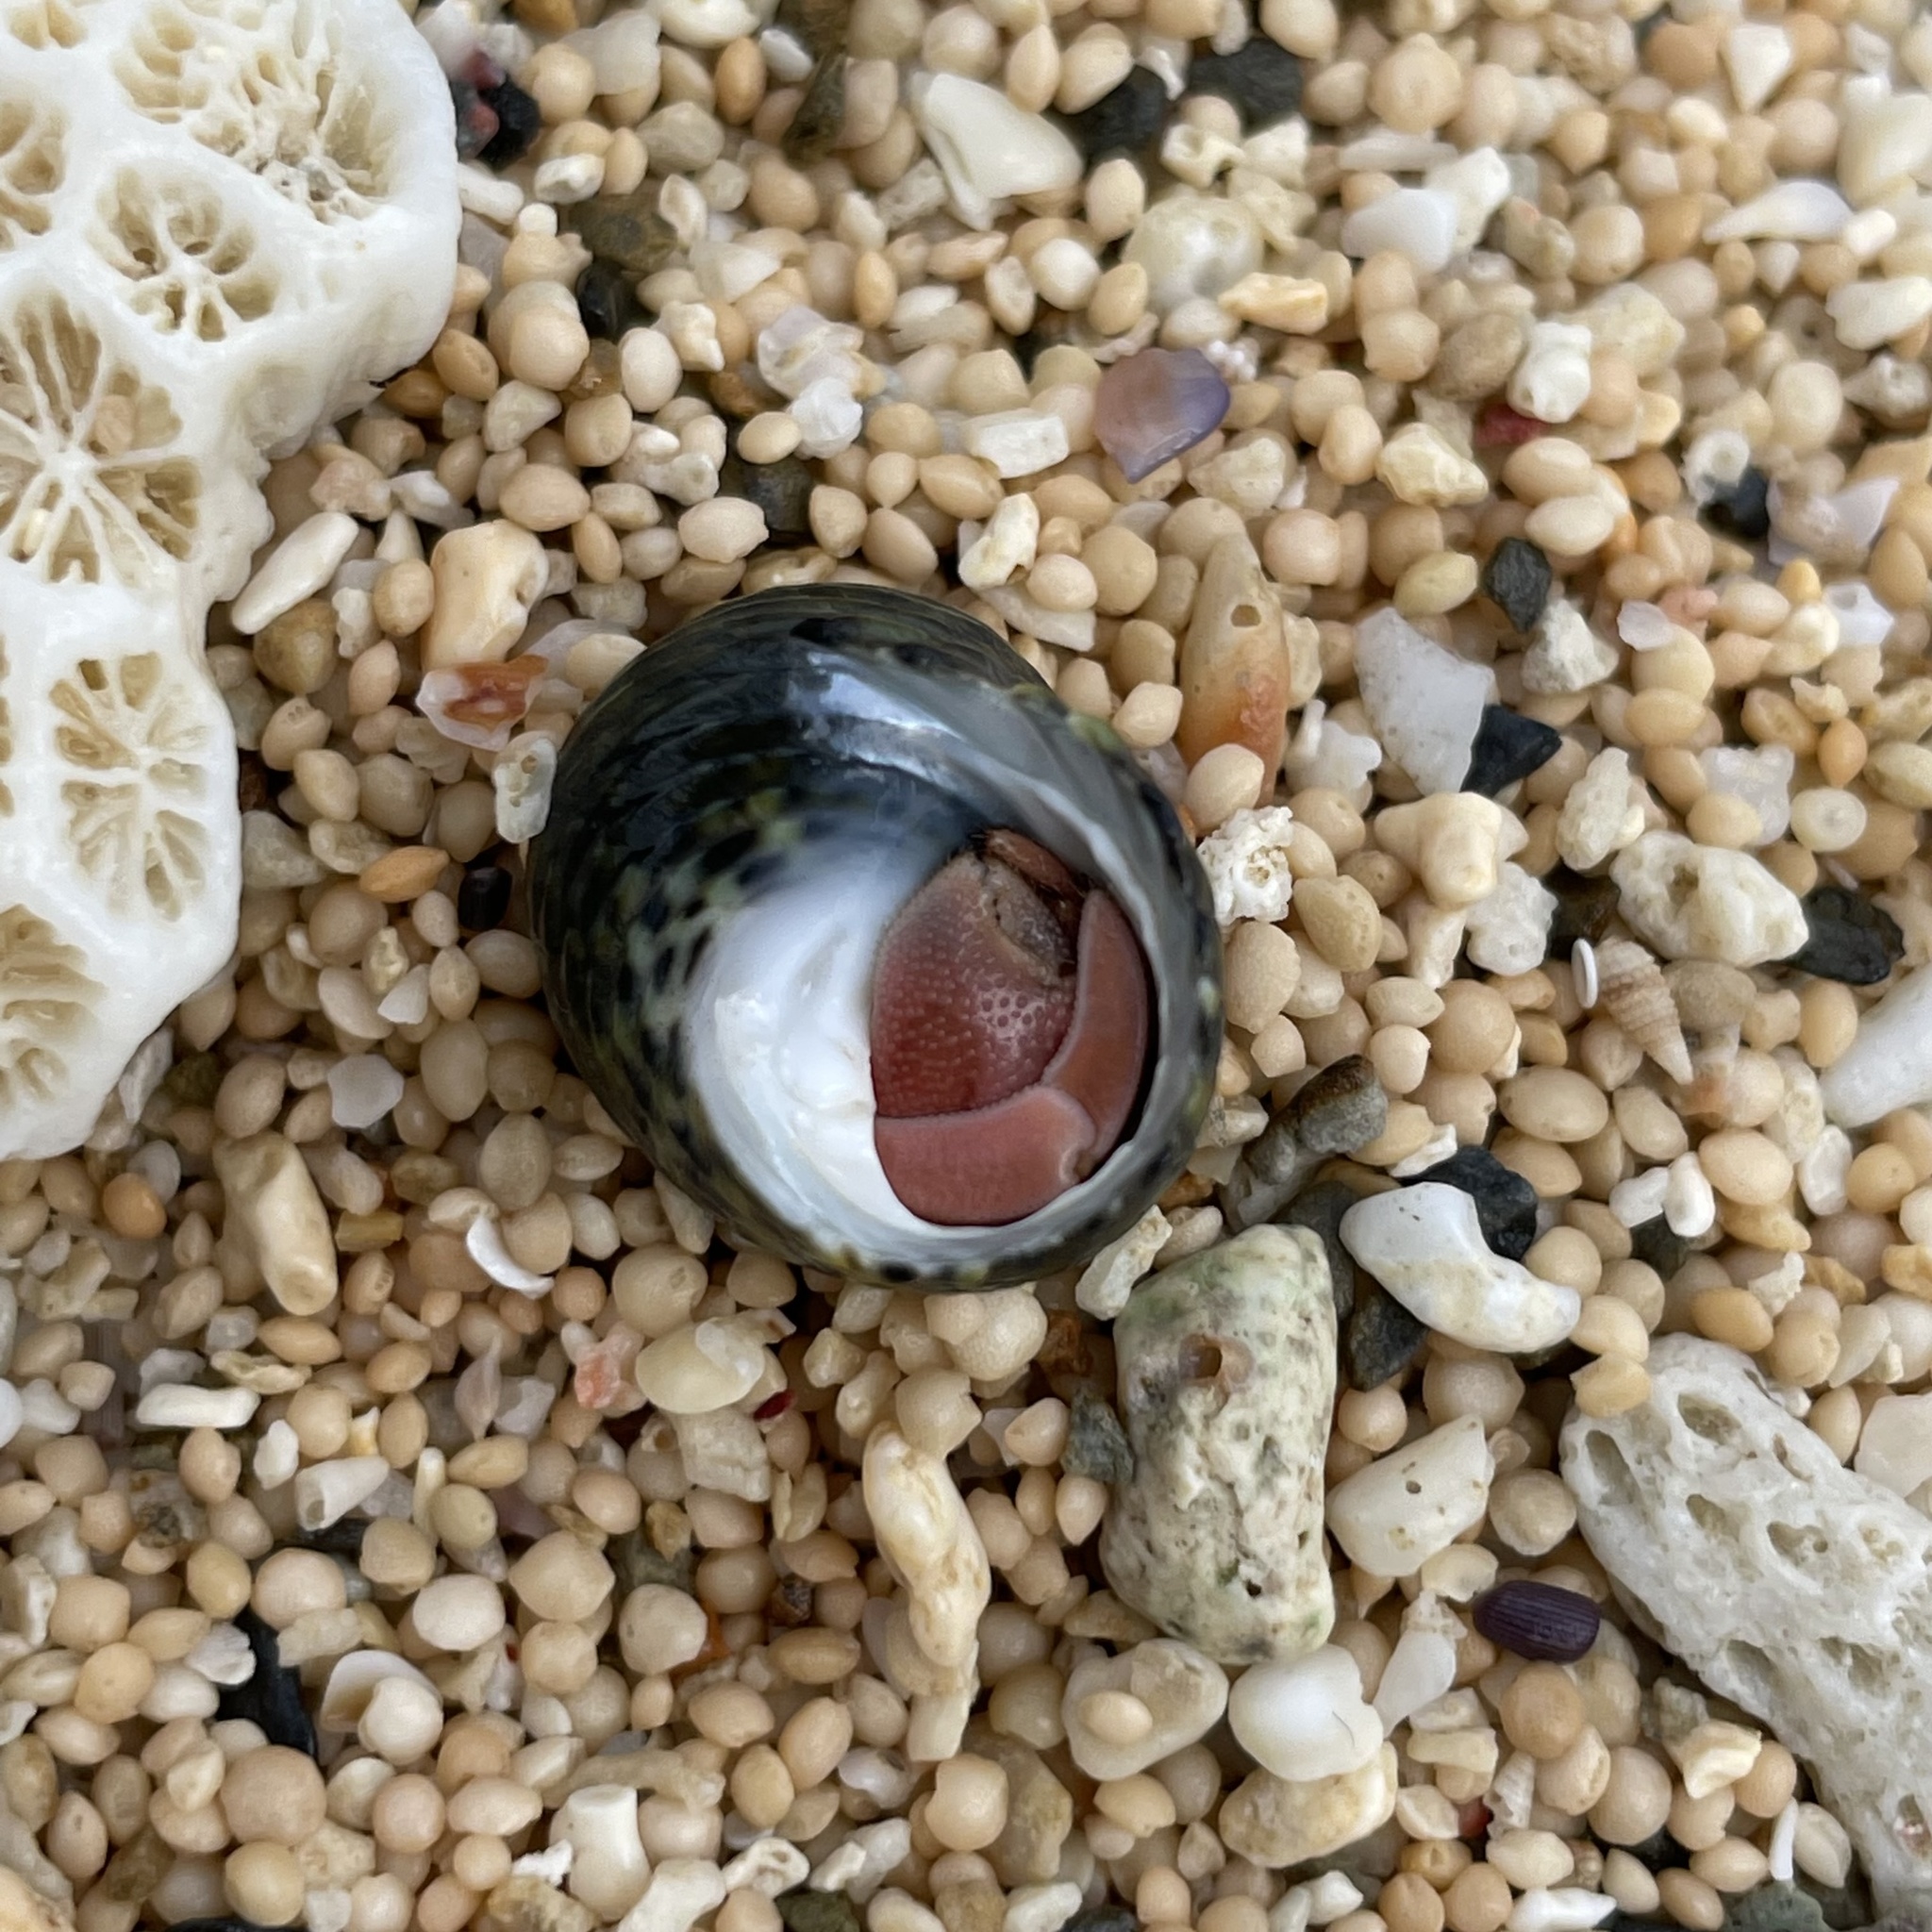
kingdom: Animalia
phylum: Arthropoda
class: Malacostraca
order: Decapoda
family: Coenobitidae
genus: Coenobita
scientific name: Coenobita rugosus
